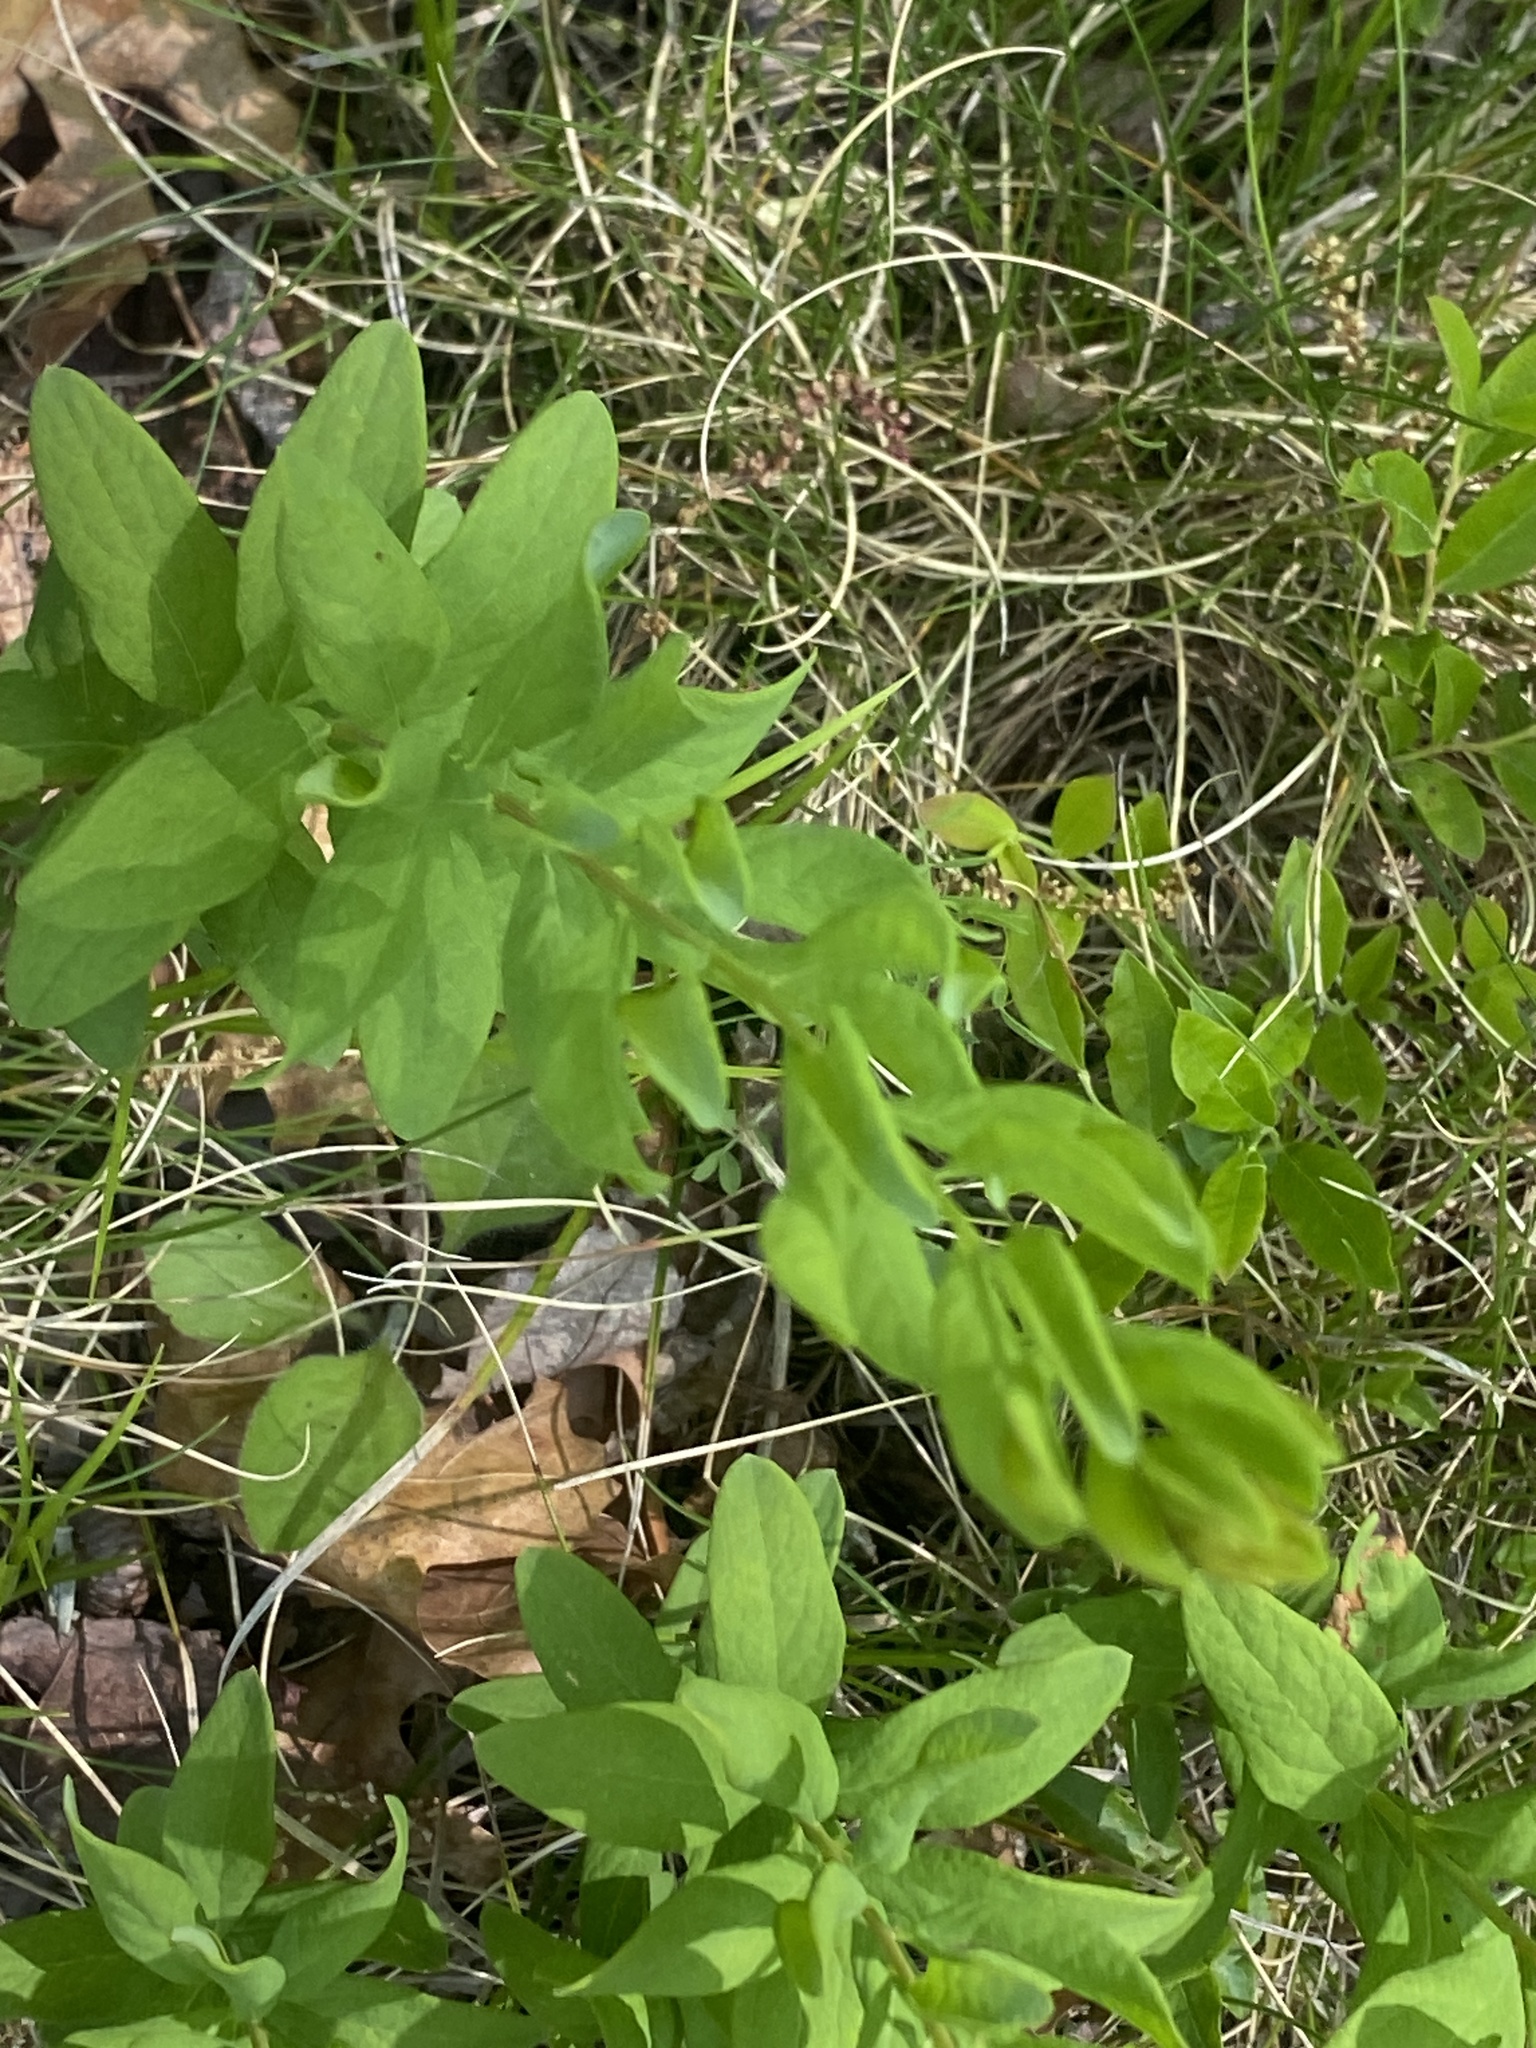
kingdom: Plantae
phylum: Tracheophyta
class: Magnoliopsida
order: Santalales
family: Comandraceae
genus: Comandra
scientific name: Comandra umbellata
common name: Bastard toadflax
